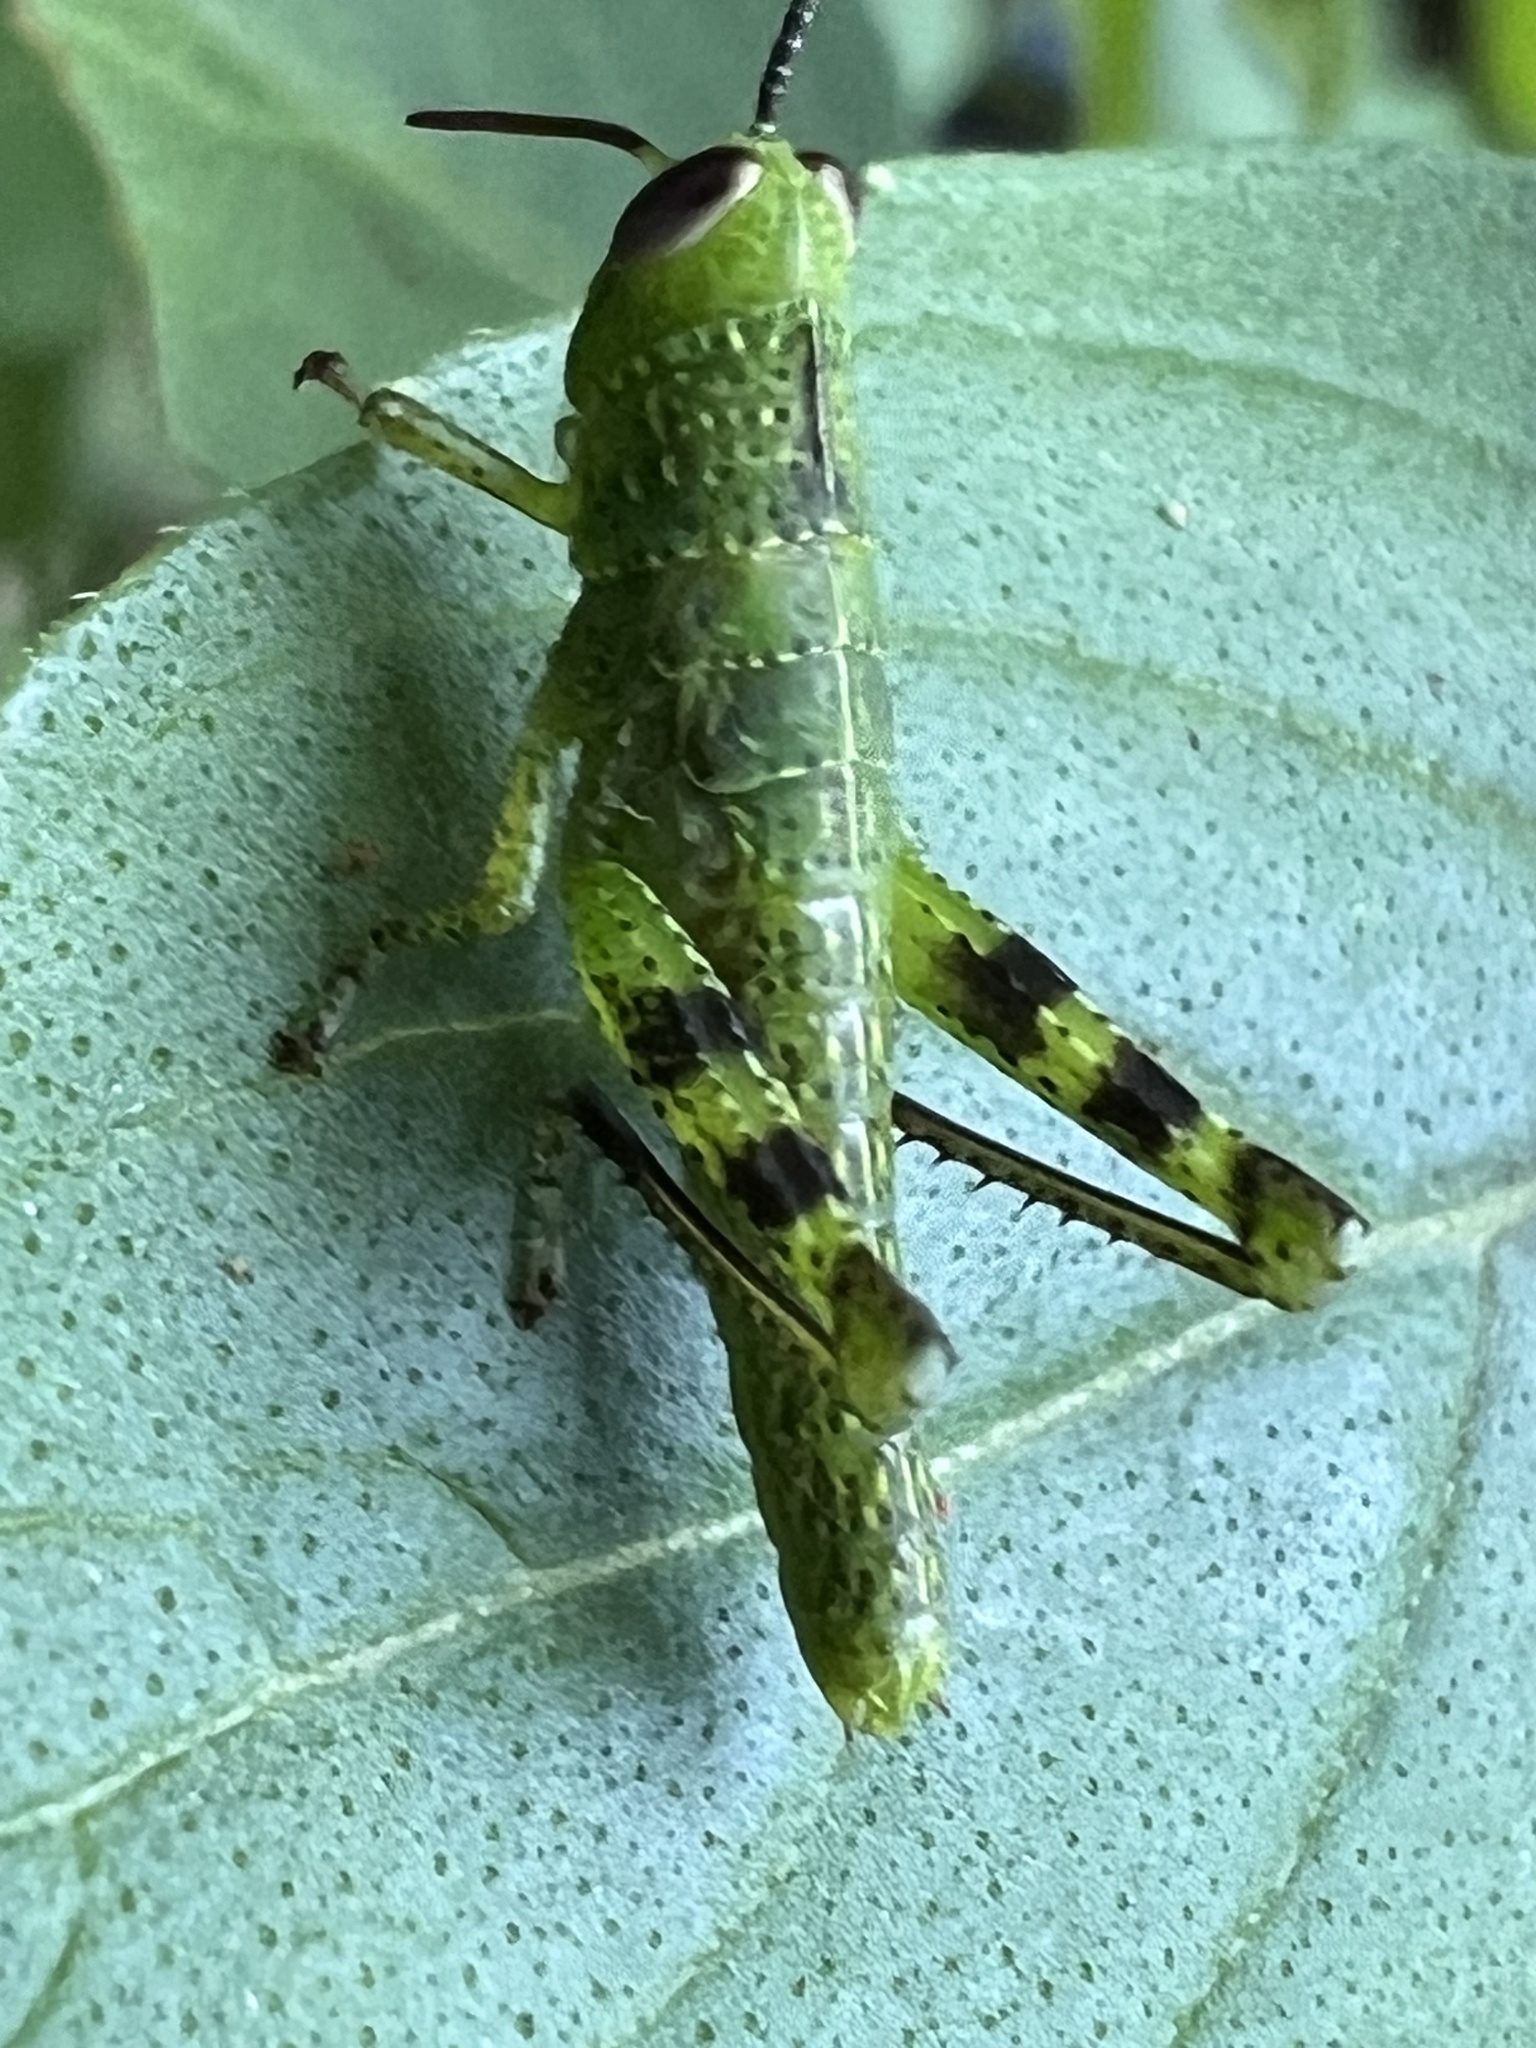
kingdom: Animalia
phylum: Arthropoda
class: Insecta
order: Orthoptera
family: Acrididae
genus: Valanga
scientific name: Valanga irregularis
